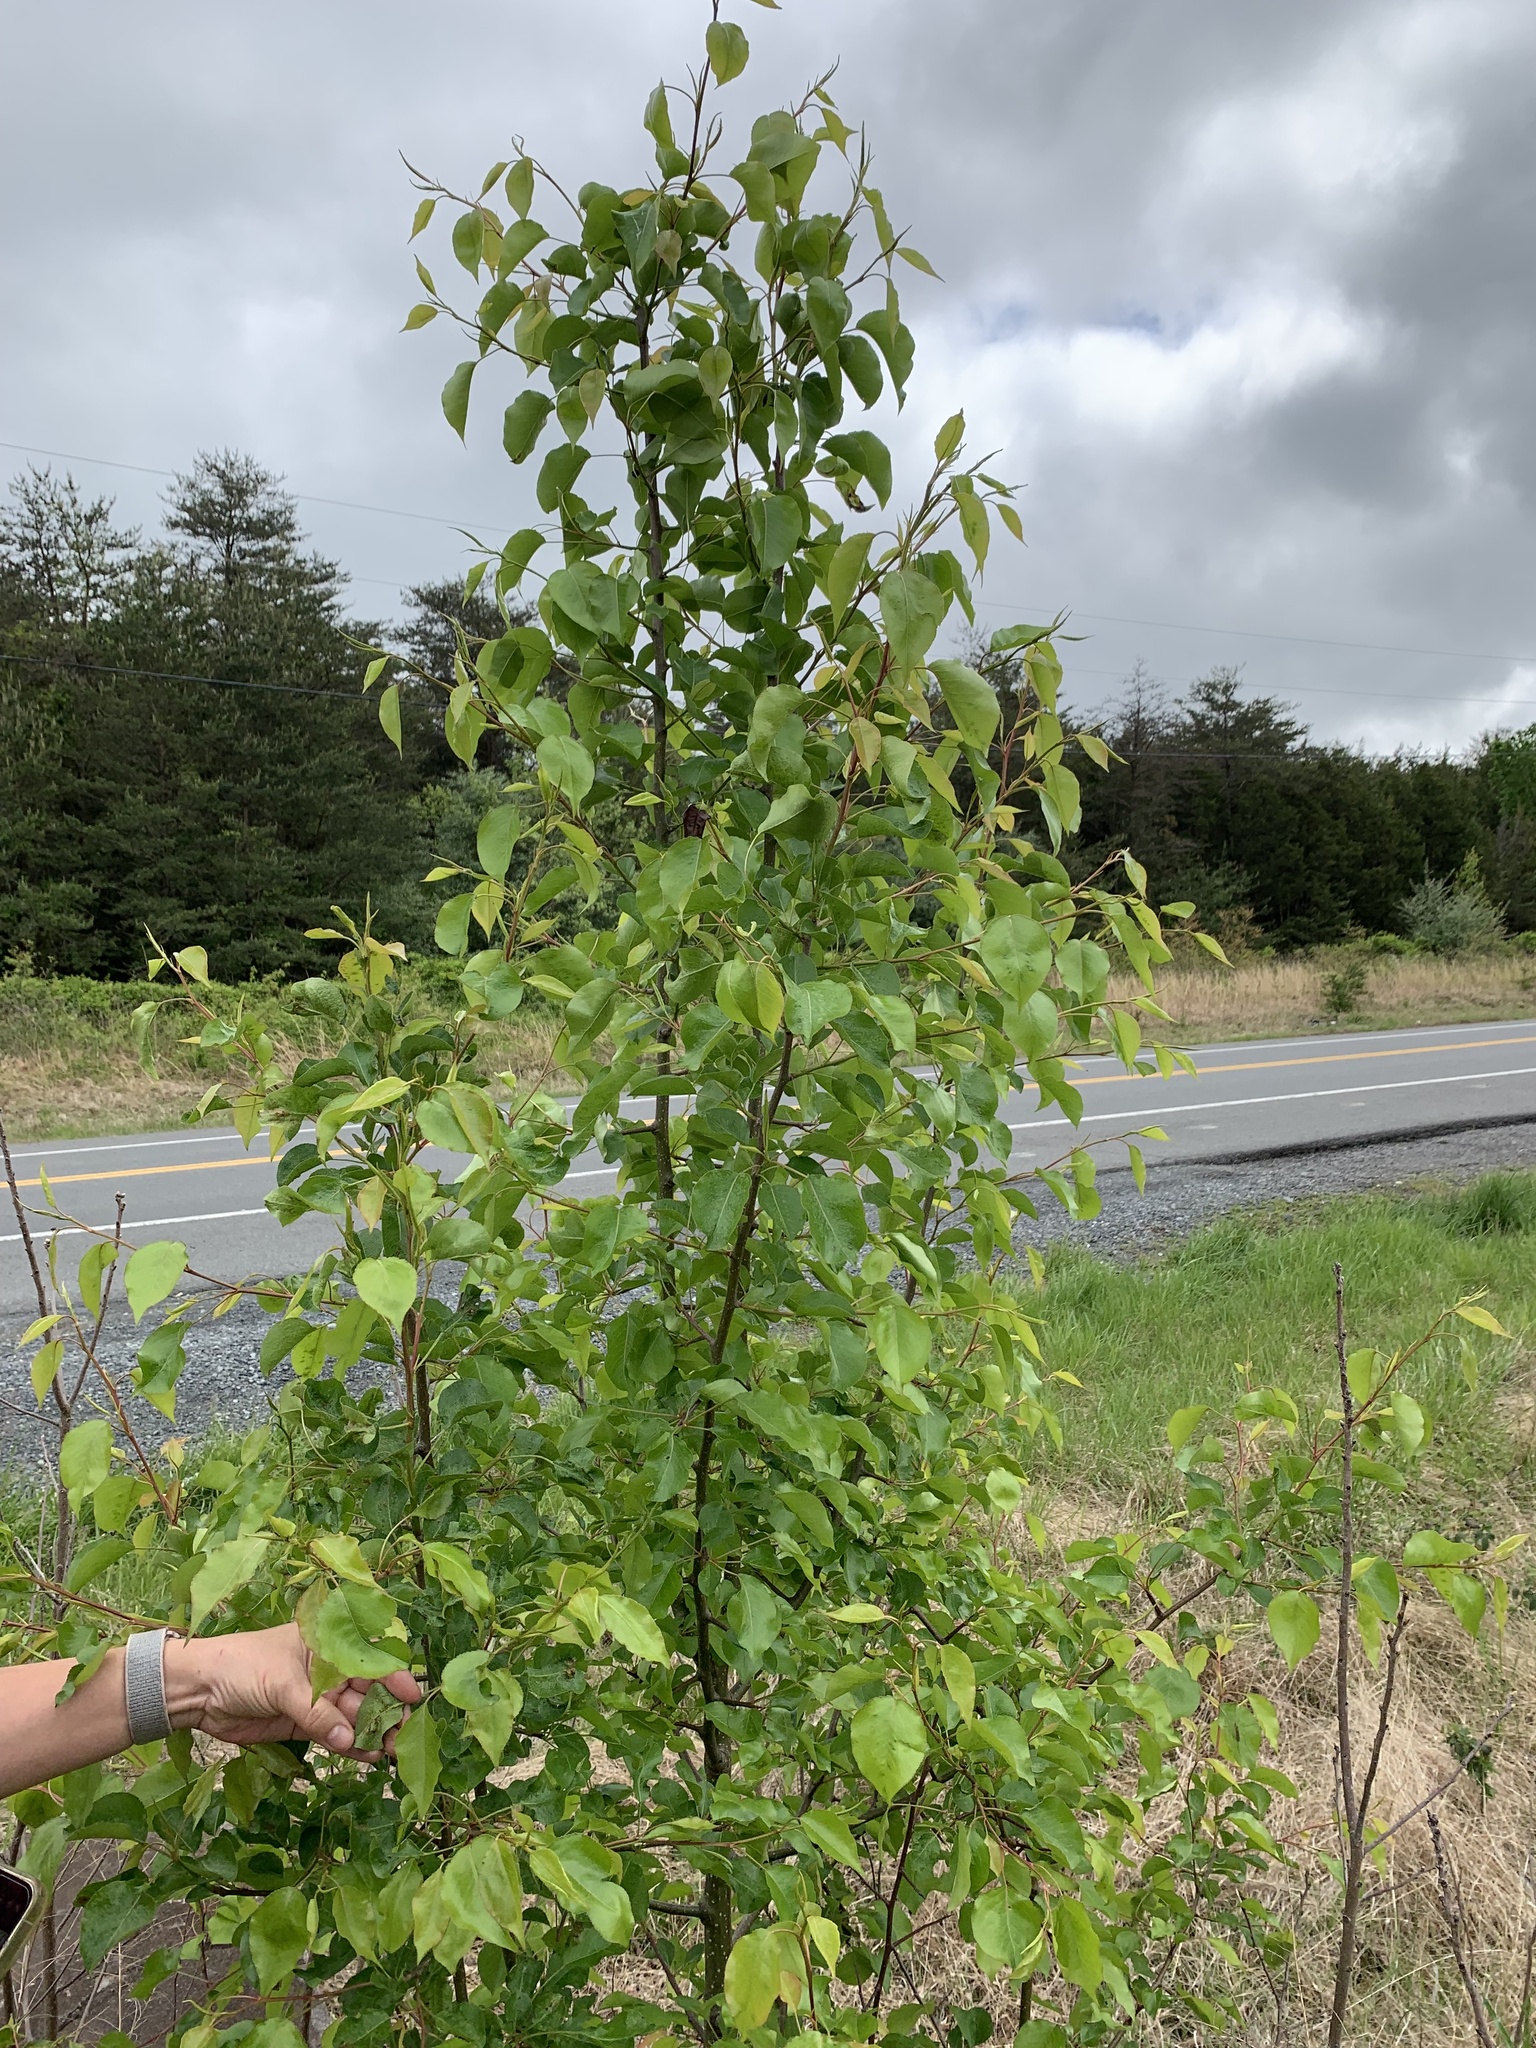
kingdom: Plantae
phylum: Tracheophyta
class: Magnoliopsida
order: Rosales
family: Rosaceae
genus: Pyrus
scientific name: Pyrus calleryana
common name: Callery pear
